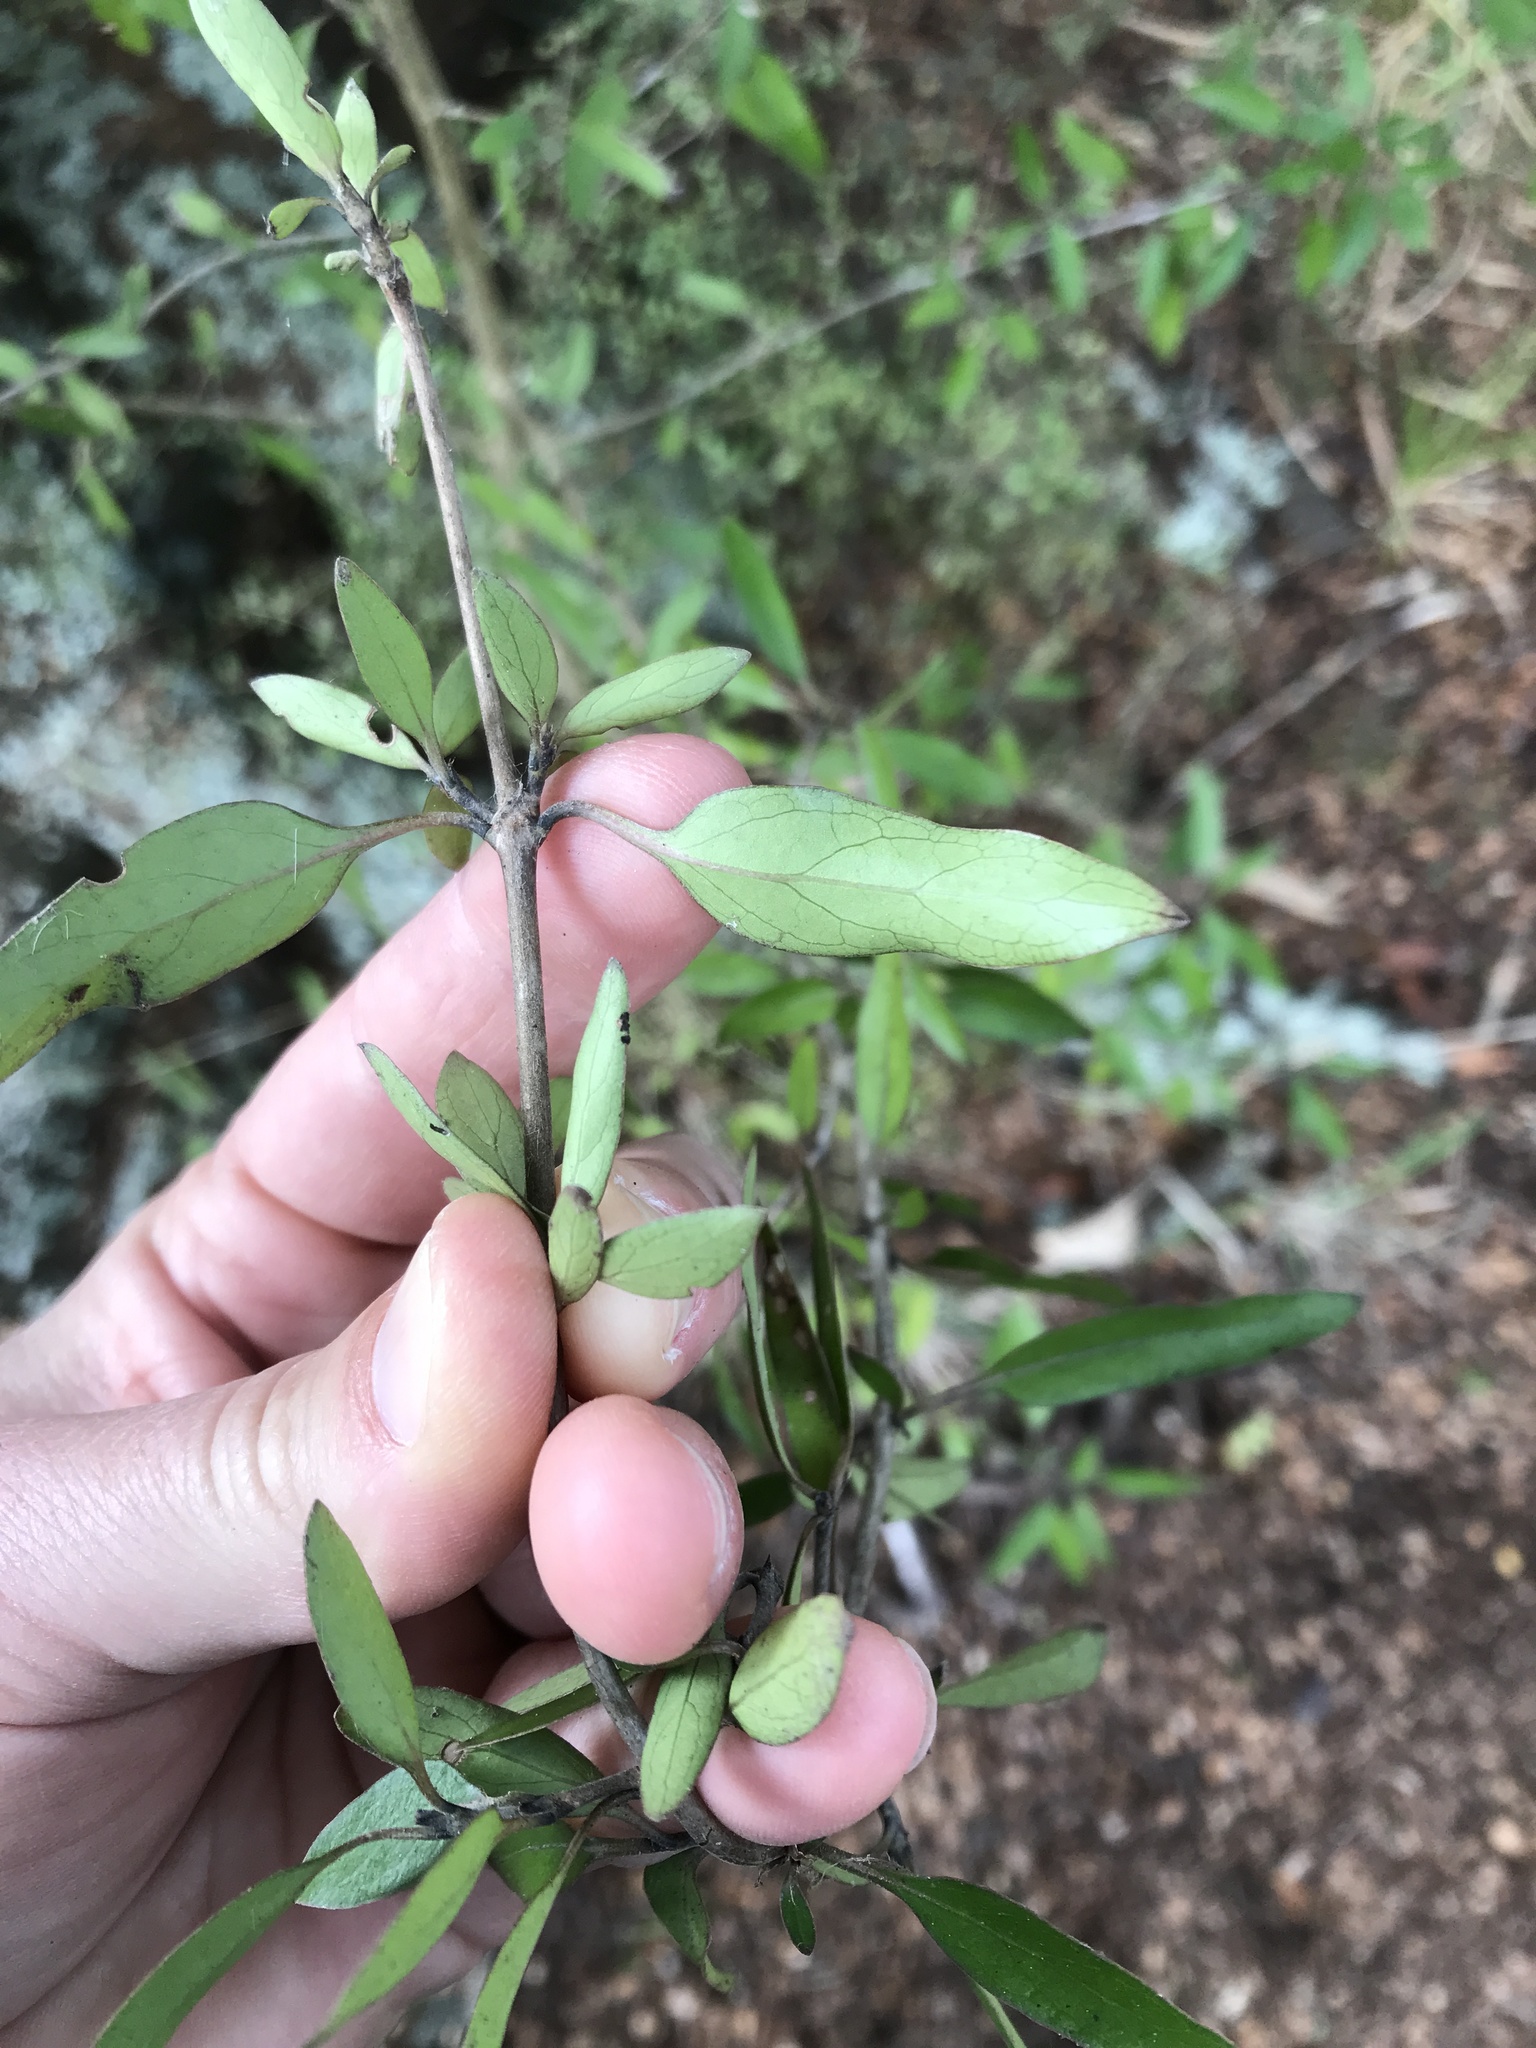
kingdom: Plantae
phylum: Tracheophyta
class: Magnoliopsida
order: Gentianales
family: Rubiaceae
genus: Coprosma
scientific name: Coprosma cunninghamii
